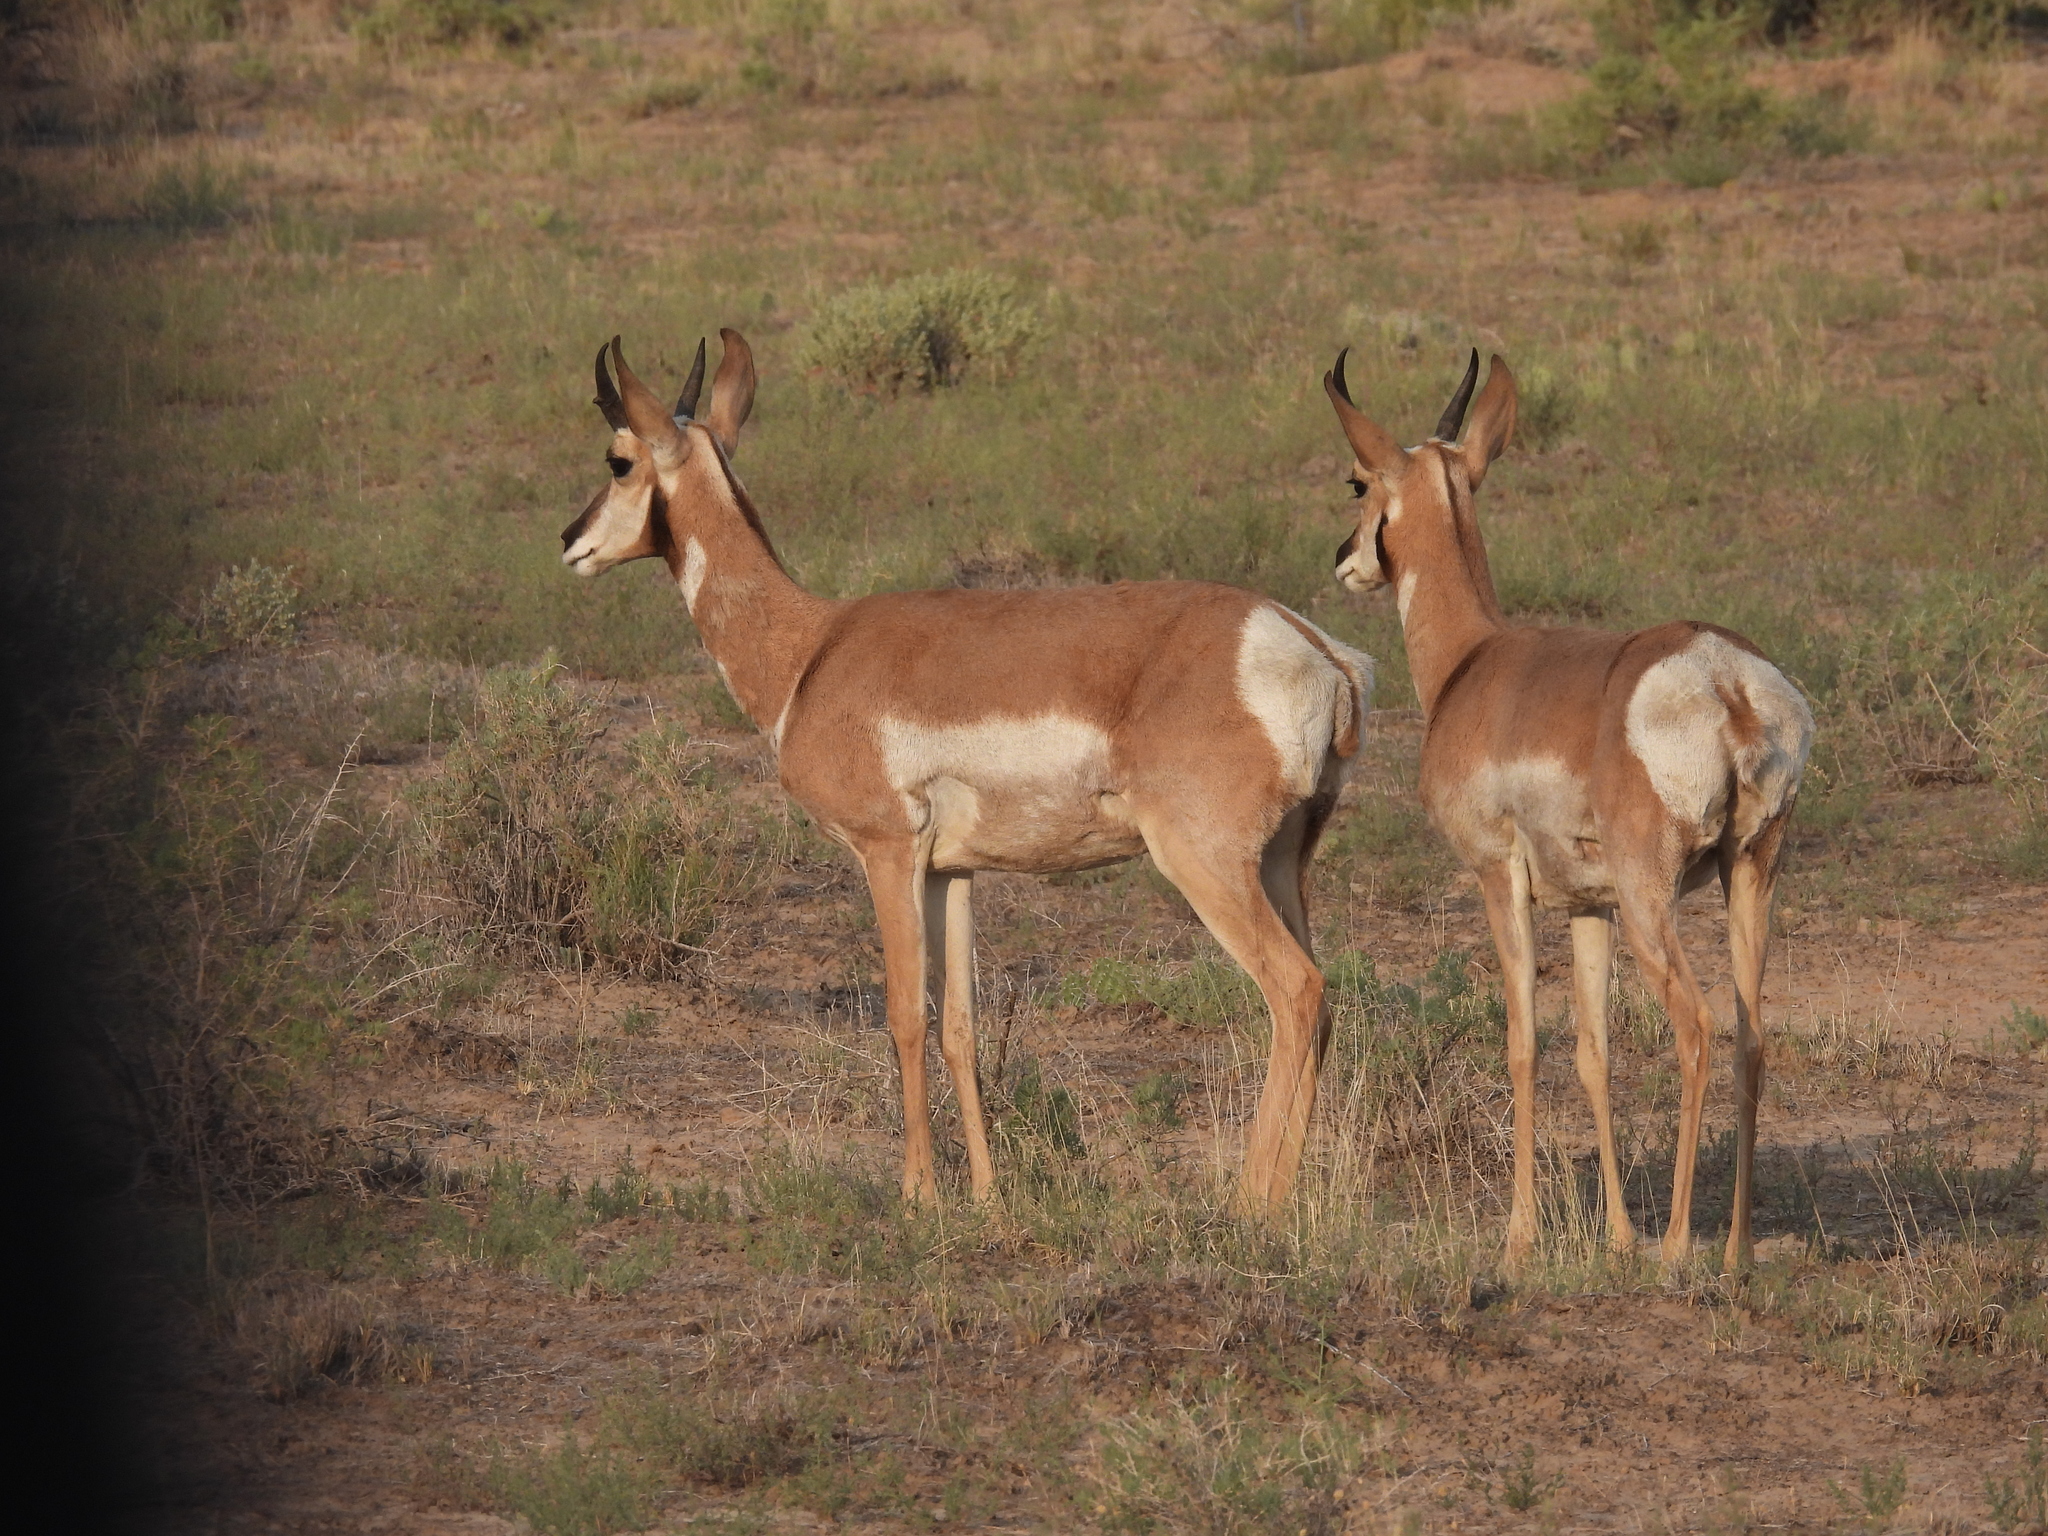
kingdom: Animalia
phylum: Chordata
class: Mammalia
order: Artiodactyla
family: Antilocapridae
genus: Antilocapra
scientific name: Antilocapra americana
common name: Pronghorn
